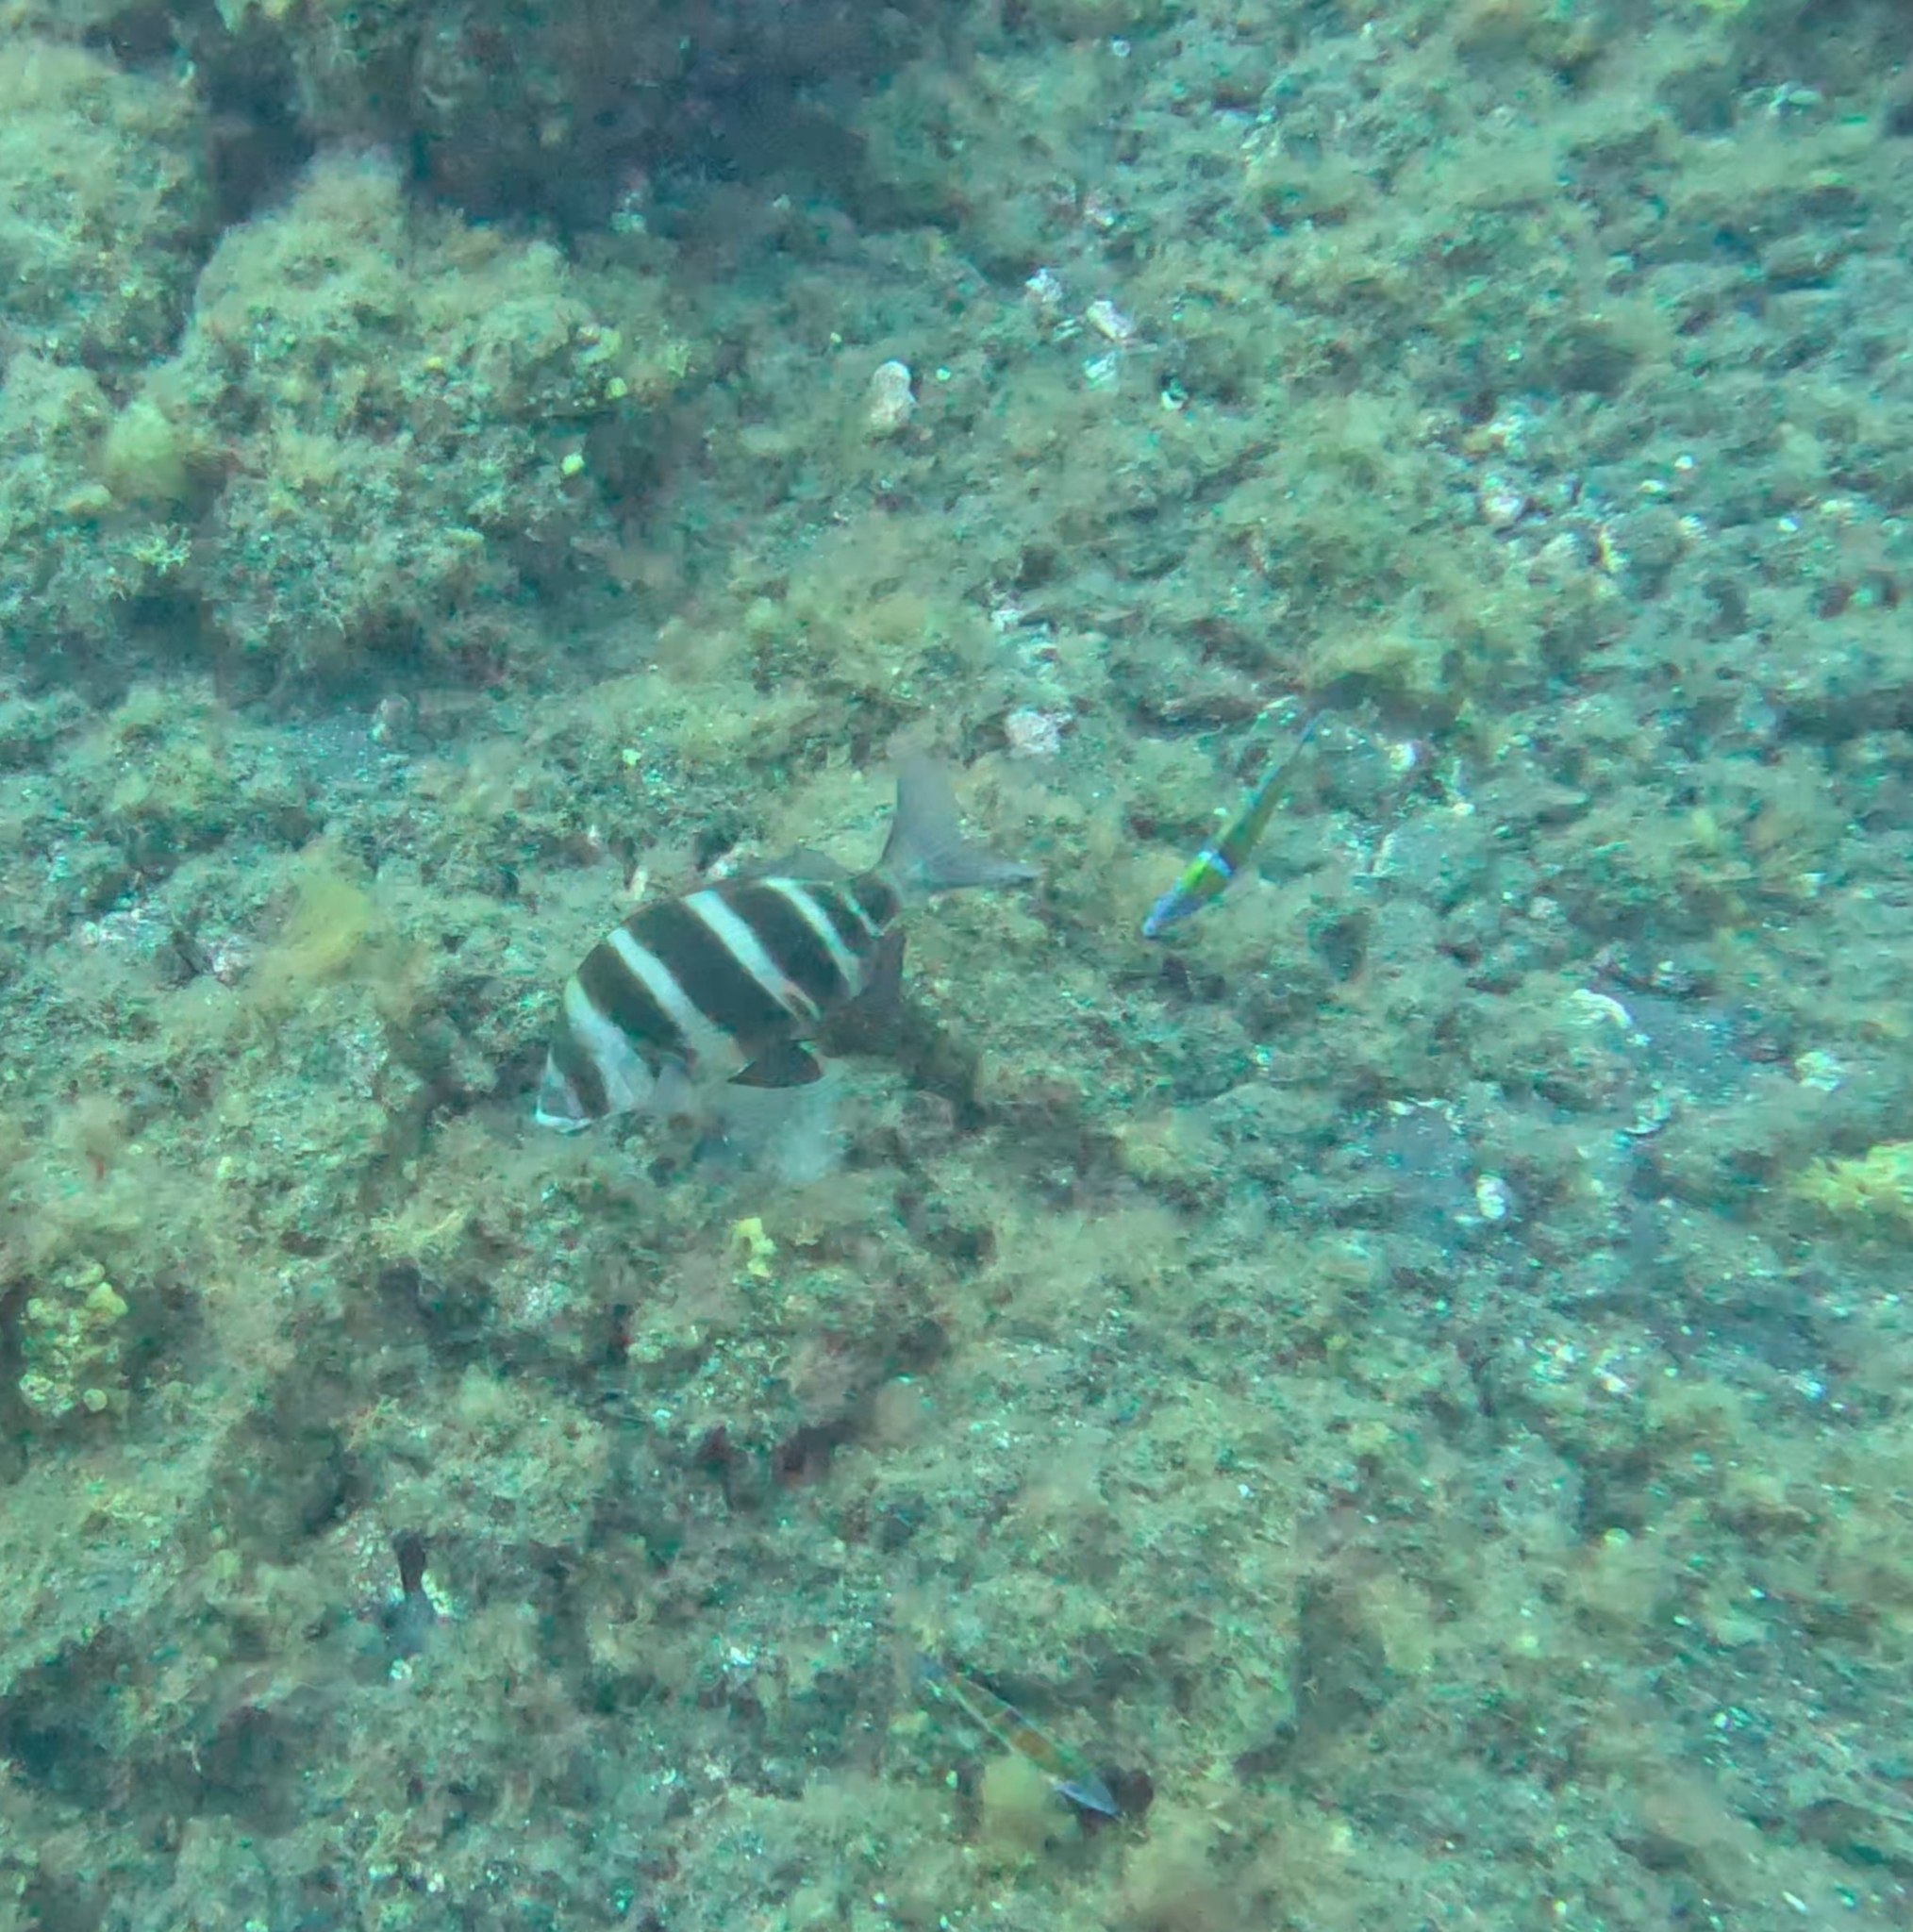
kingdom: Animalia
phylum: Chordata
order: Perciformes
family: Sparidae
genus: Diplodus
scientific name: Diplodus cervinus
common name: Oman porgy
